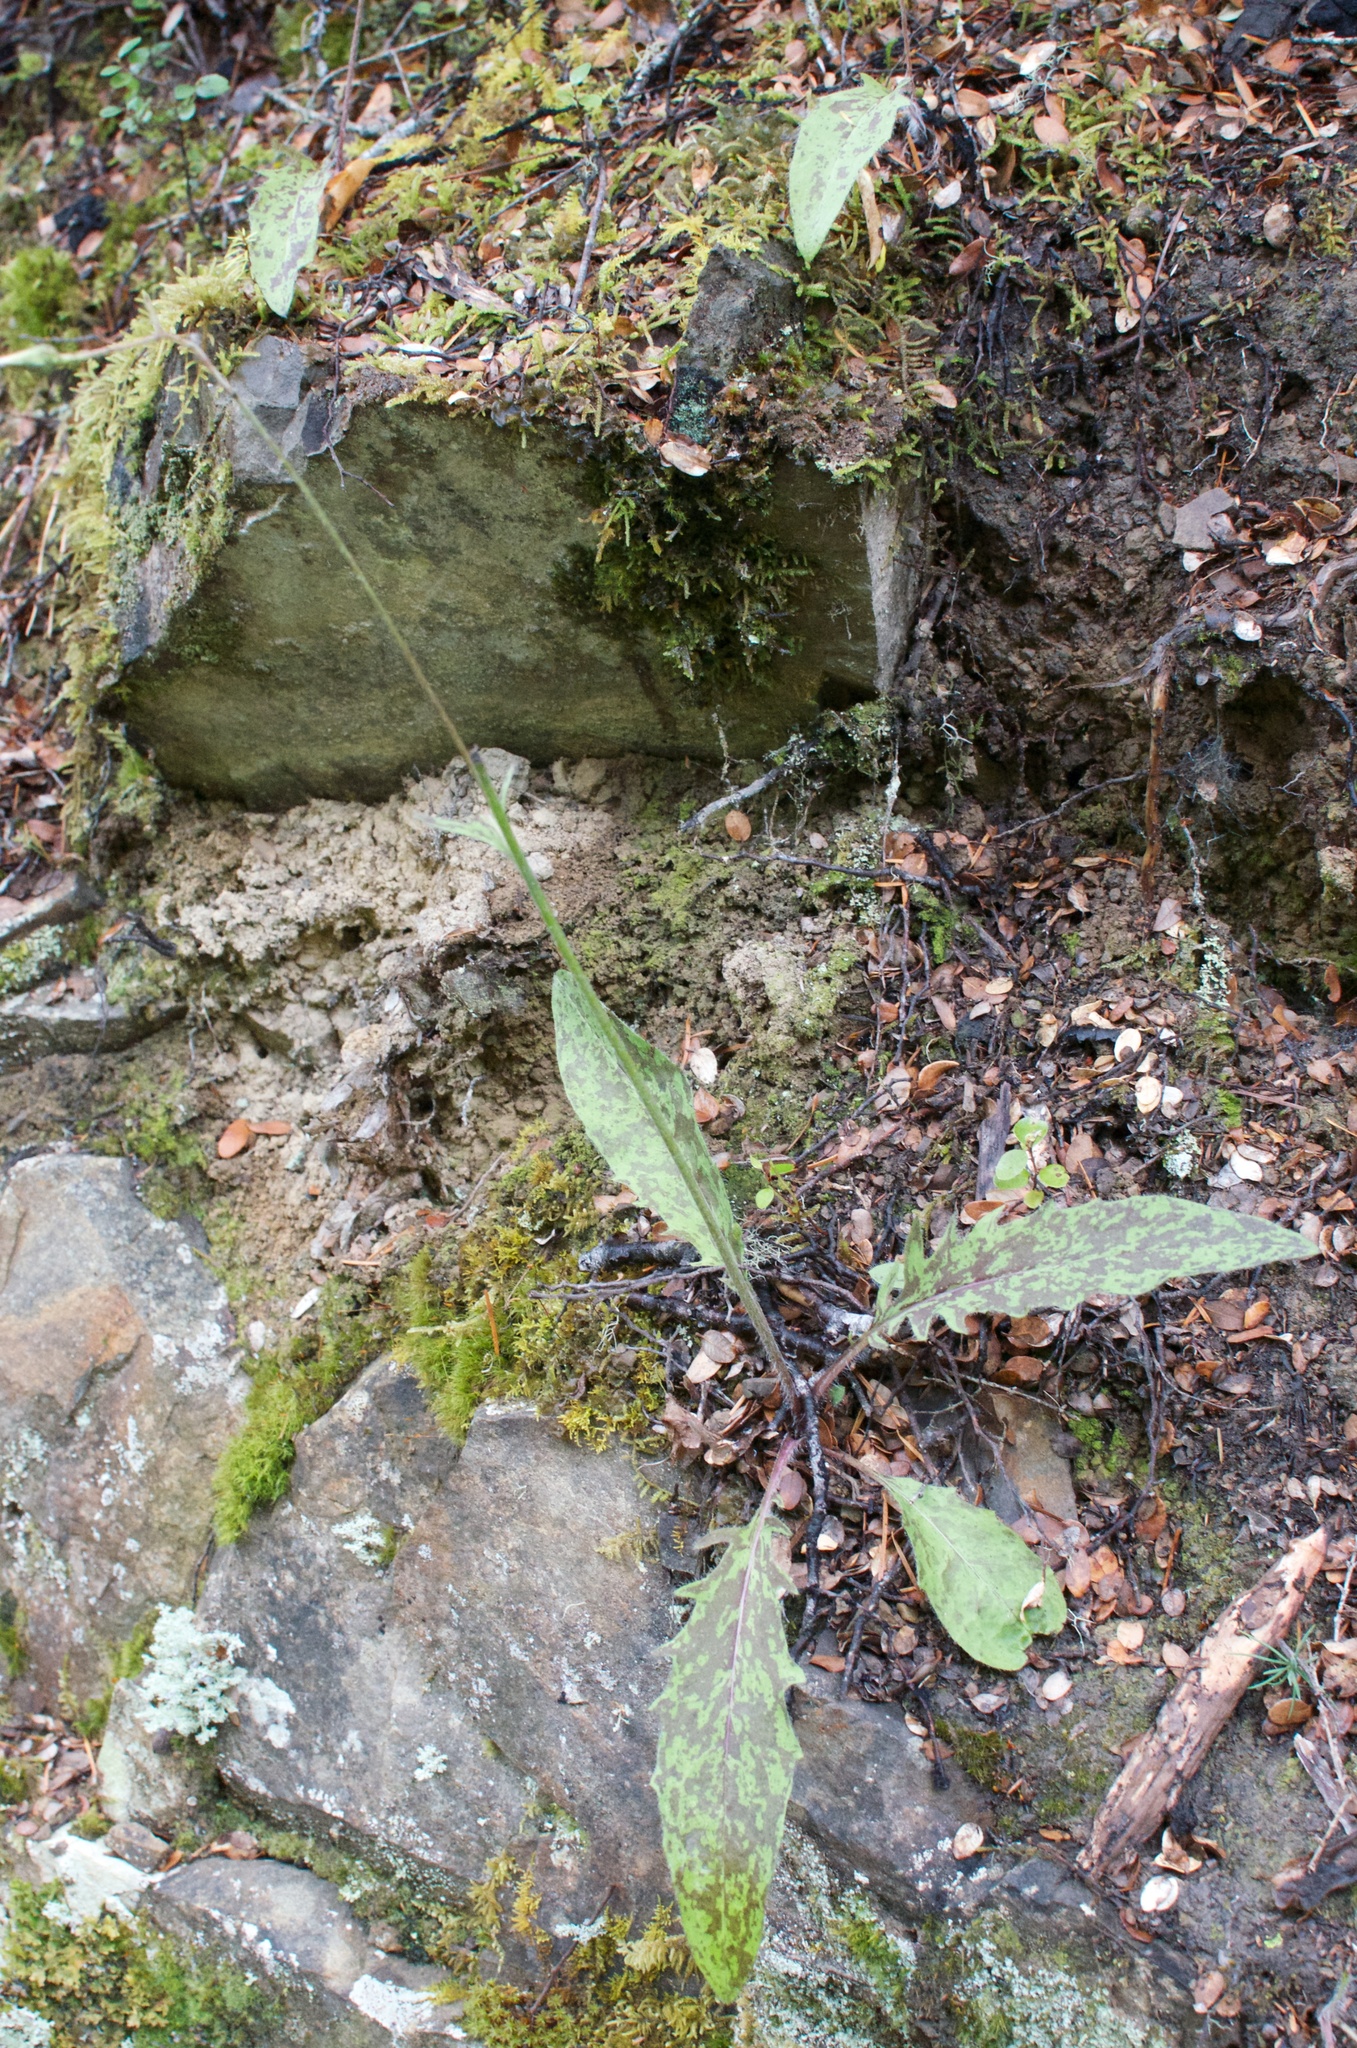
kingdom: Plantae
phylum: Tracheophyta
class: Magnoliopsida
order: Asterales
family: Asteraceae
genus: Hieracium
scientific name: Hieracium maculatum
